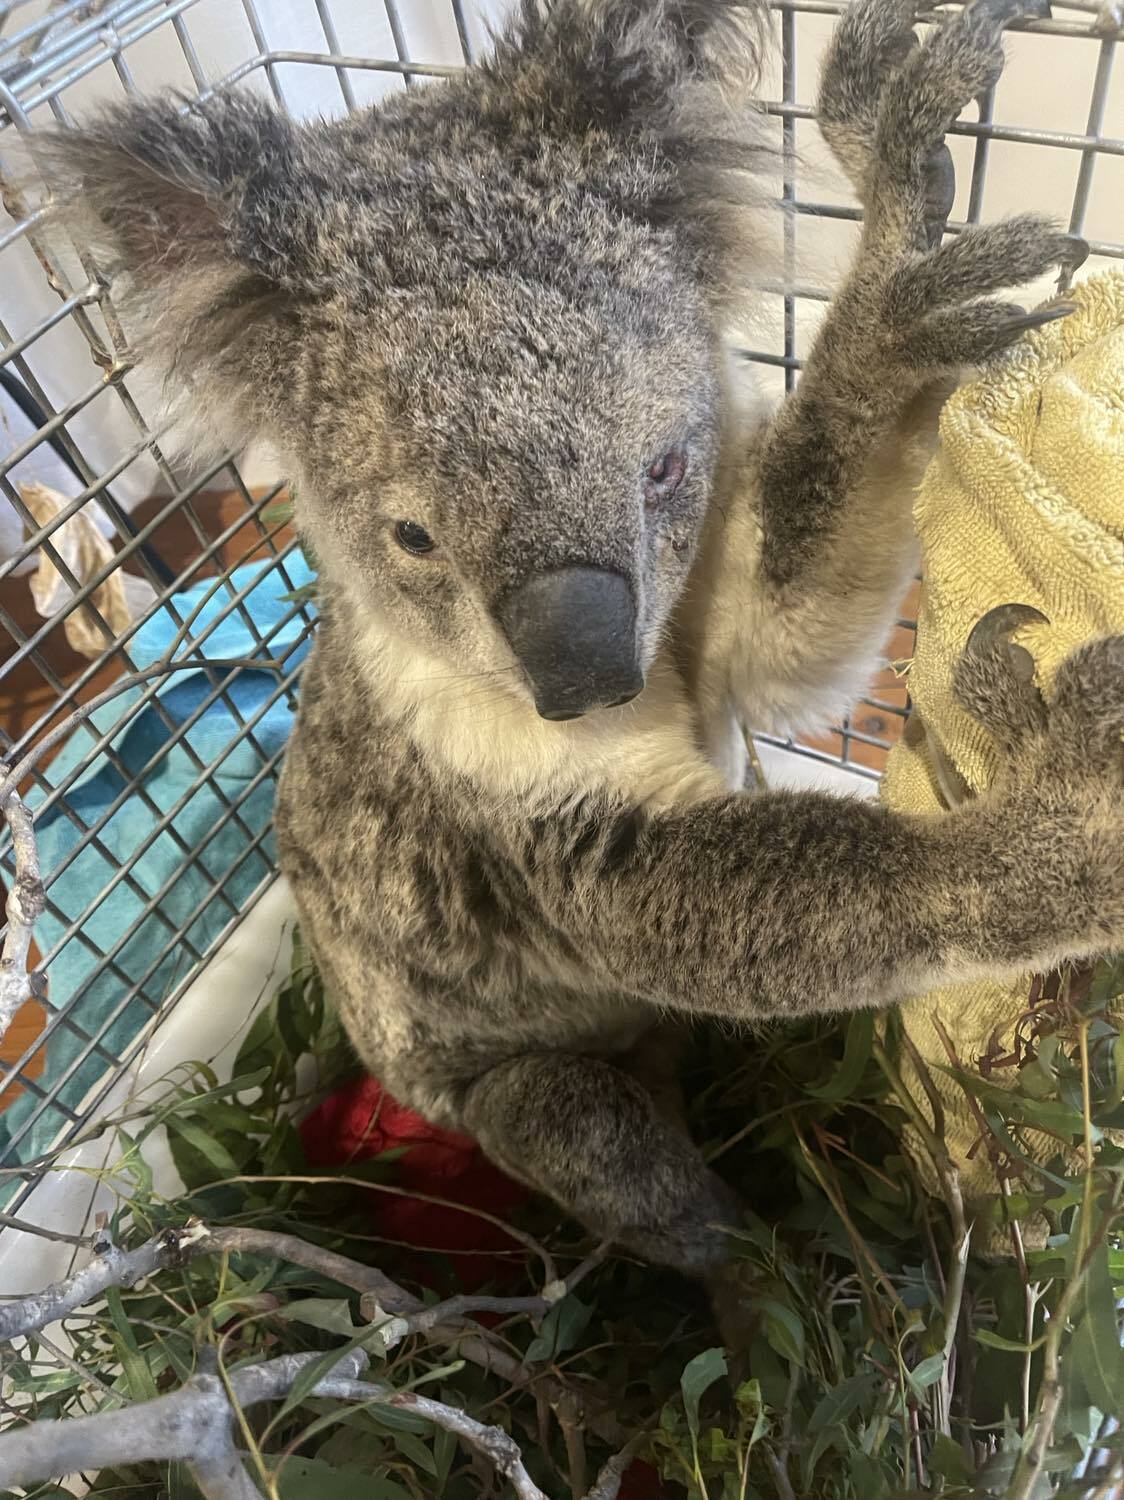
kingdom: Animalia
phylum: Chordata
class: Mammalia
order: Diprotodontia
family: Phascolarctidae
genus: Phascolarctos
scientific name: Phascolarctos cinereus
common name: Koala
